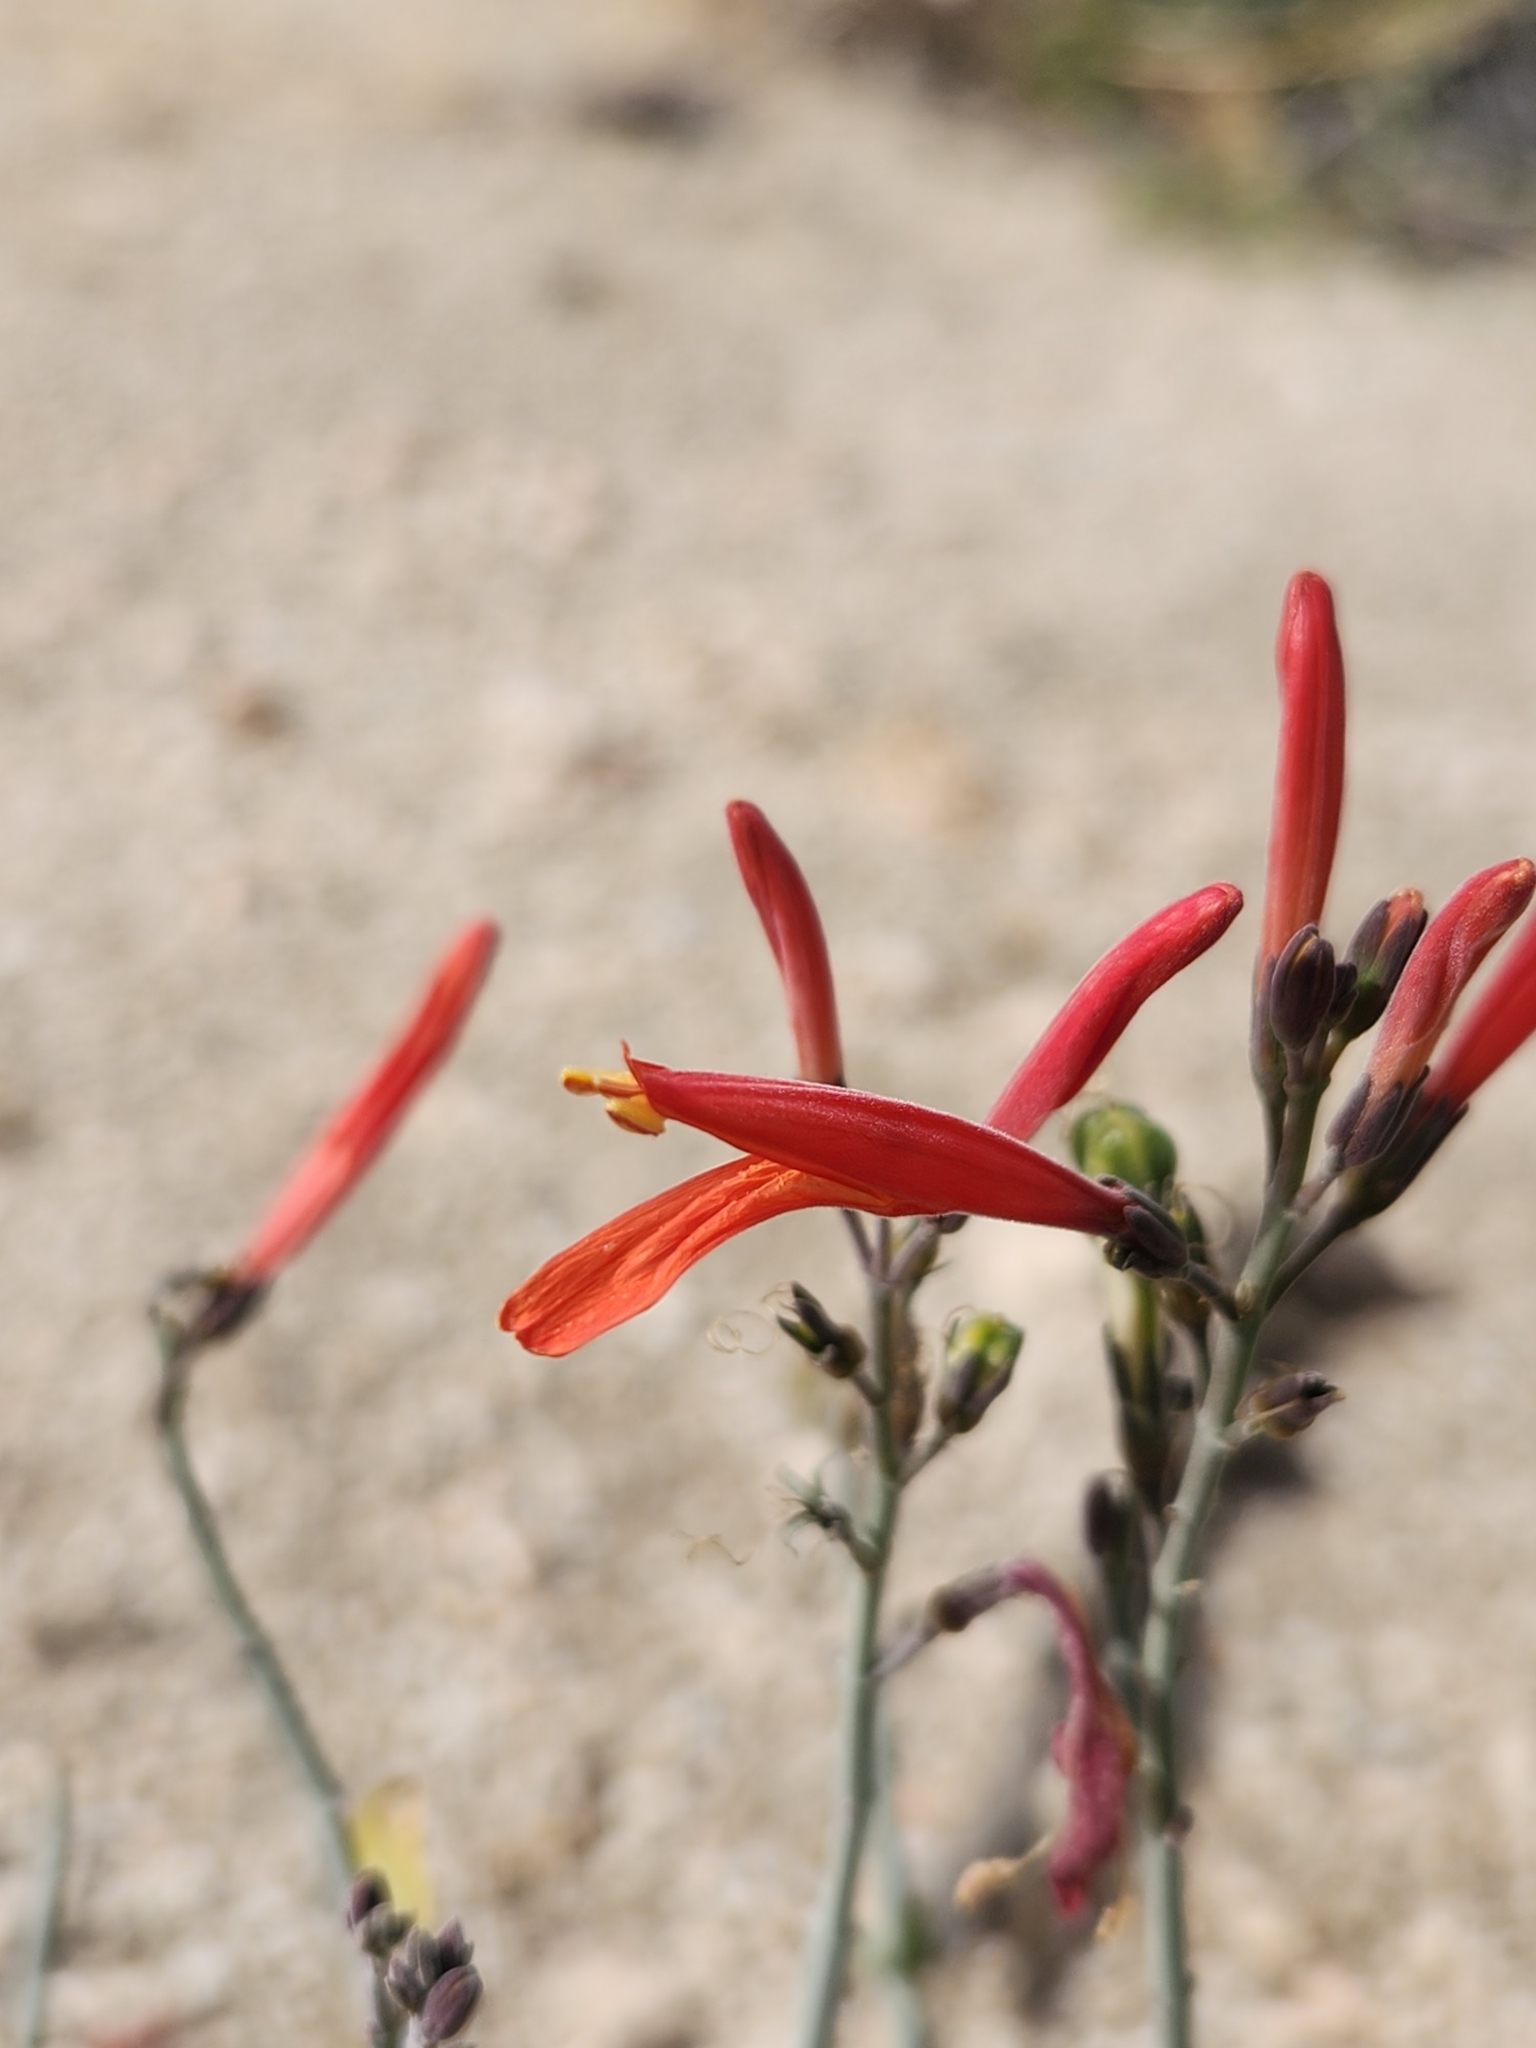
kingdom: Plantae
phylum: Tracheophyta
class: Magnoliopsida
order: Lamiales
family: Acanthaceae
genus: Justicia
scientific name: Justicia californica
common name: Chuparosa-honeysuckle
